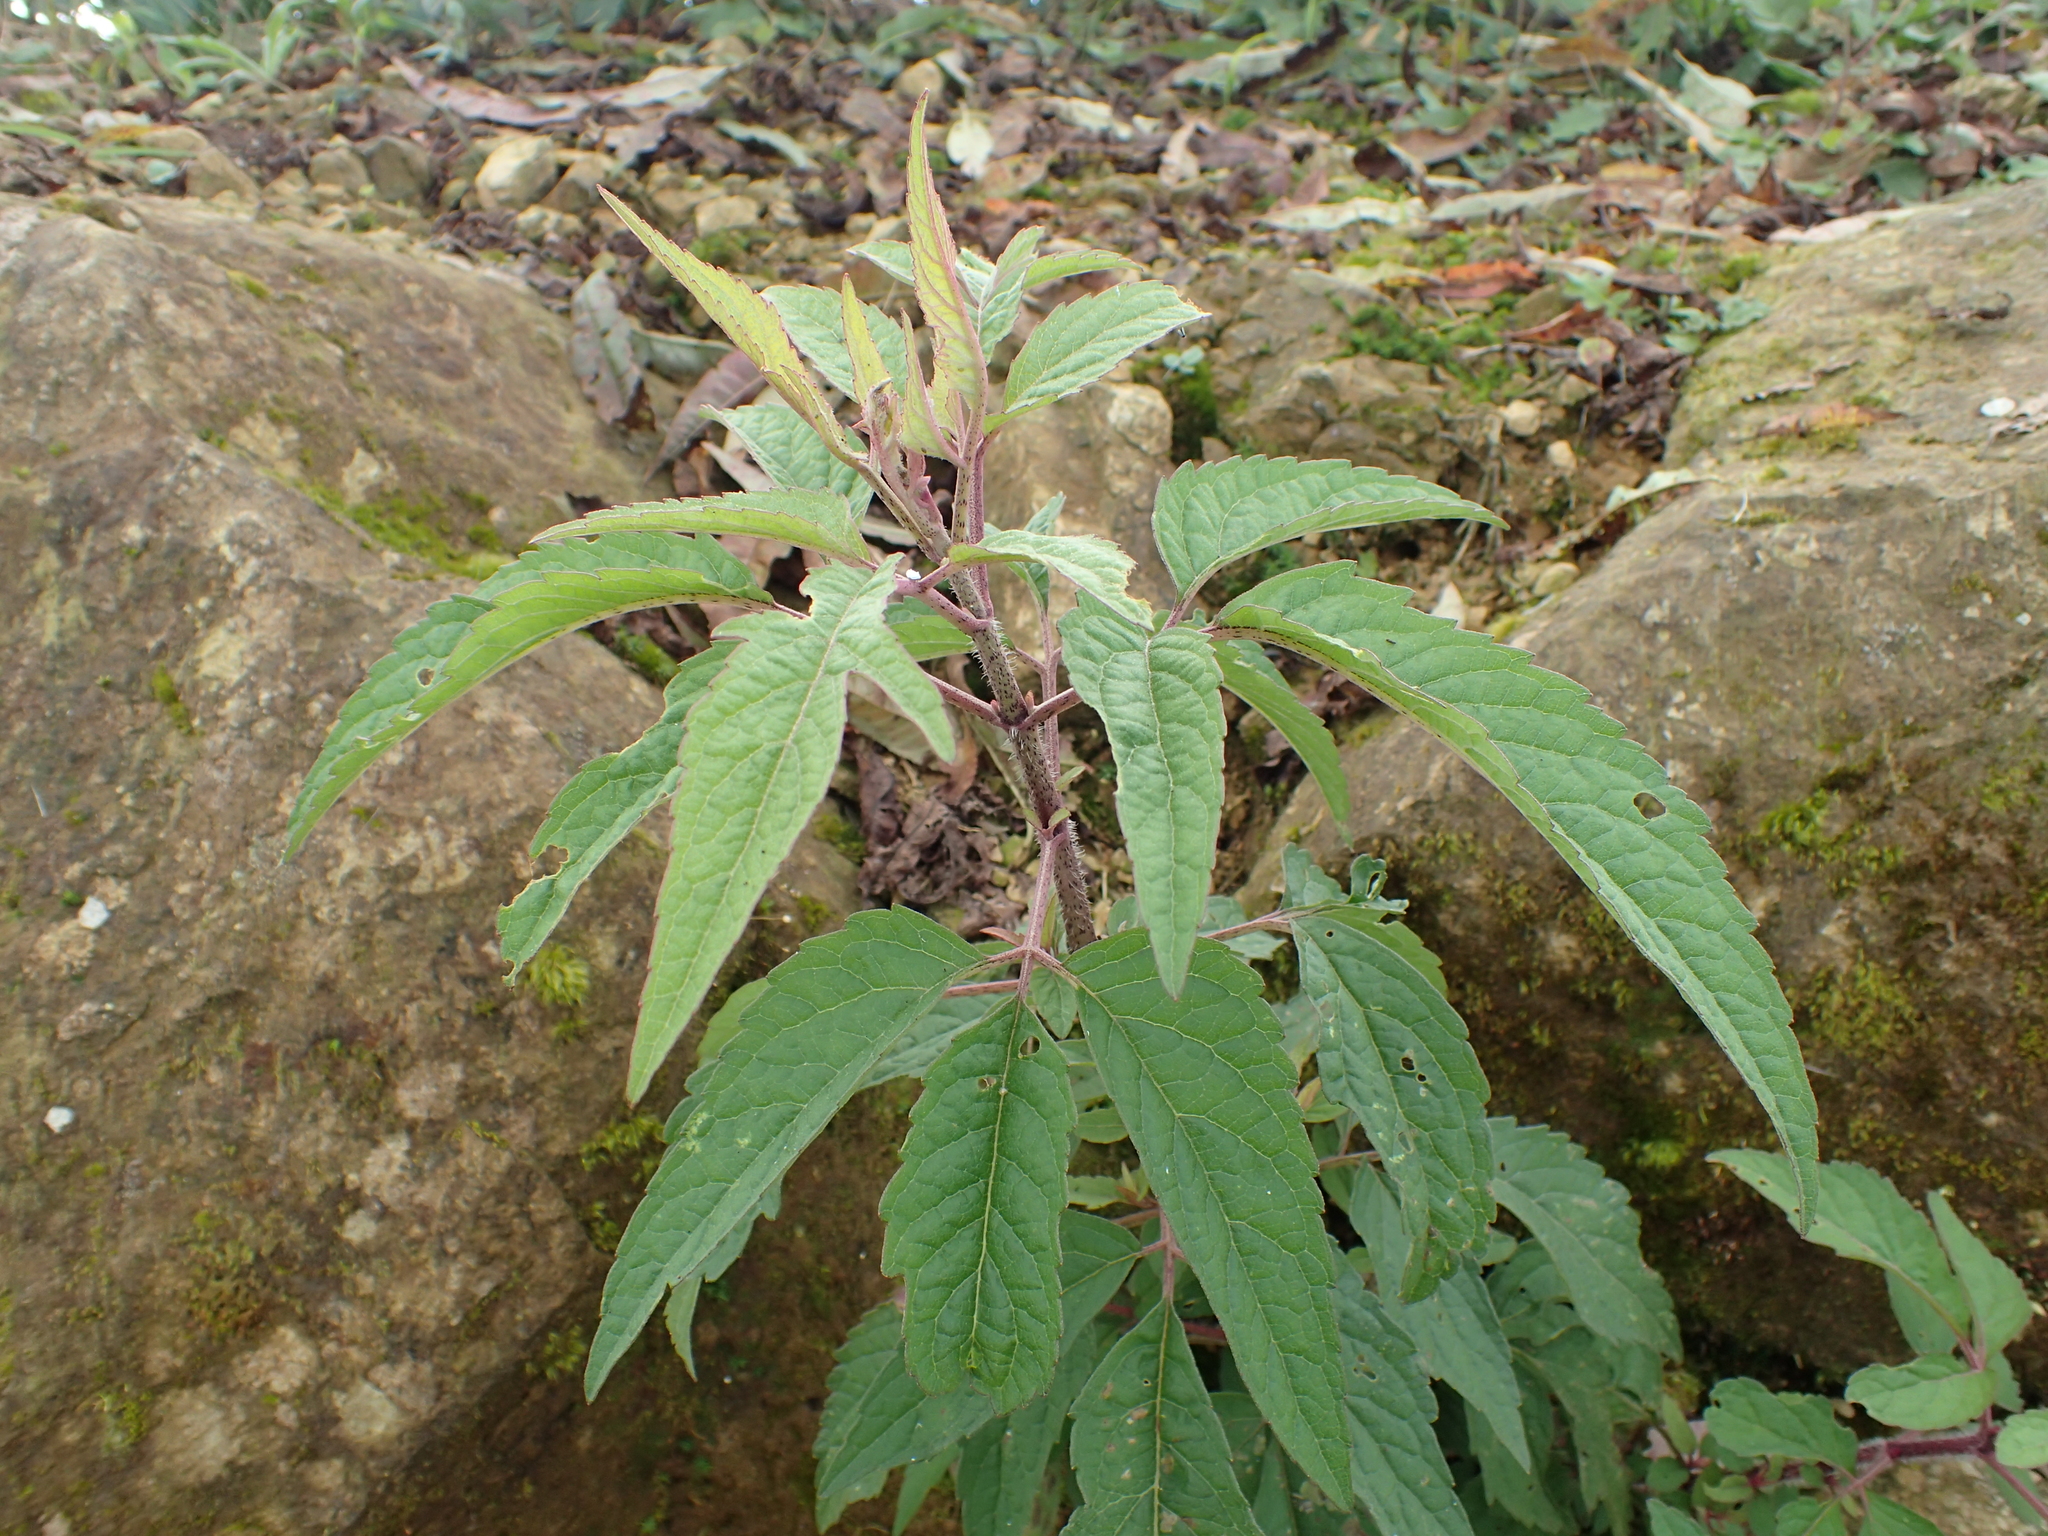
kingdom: Plantae
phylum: Tracheophyta
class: Magnoliopsida
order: Asterales
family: Asteraceae
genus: Eupatorium
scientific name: Eupatorium formosanum
